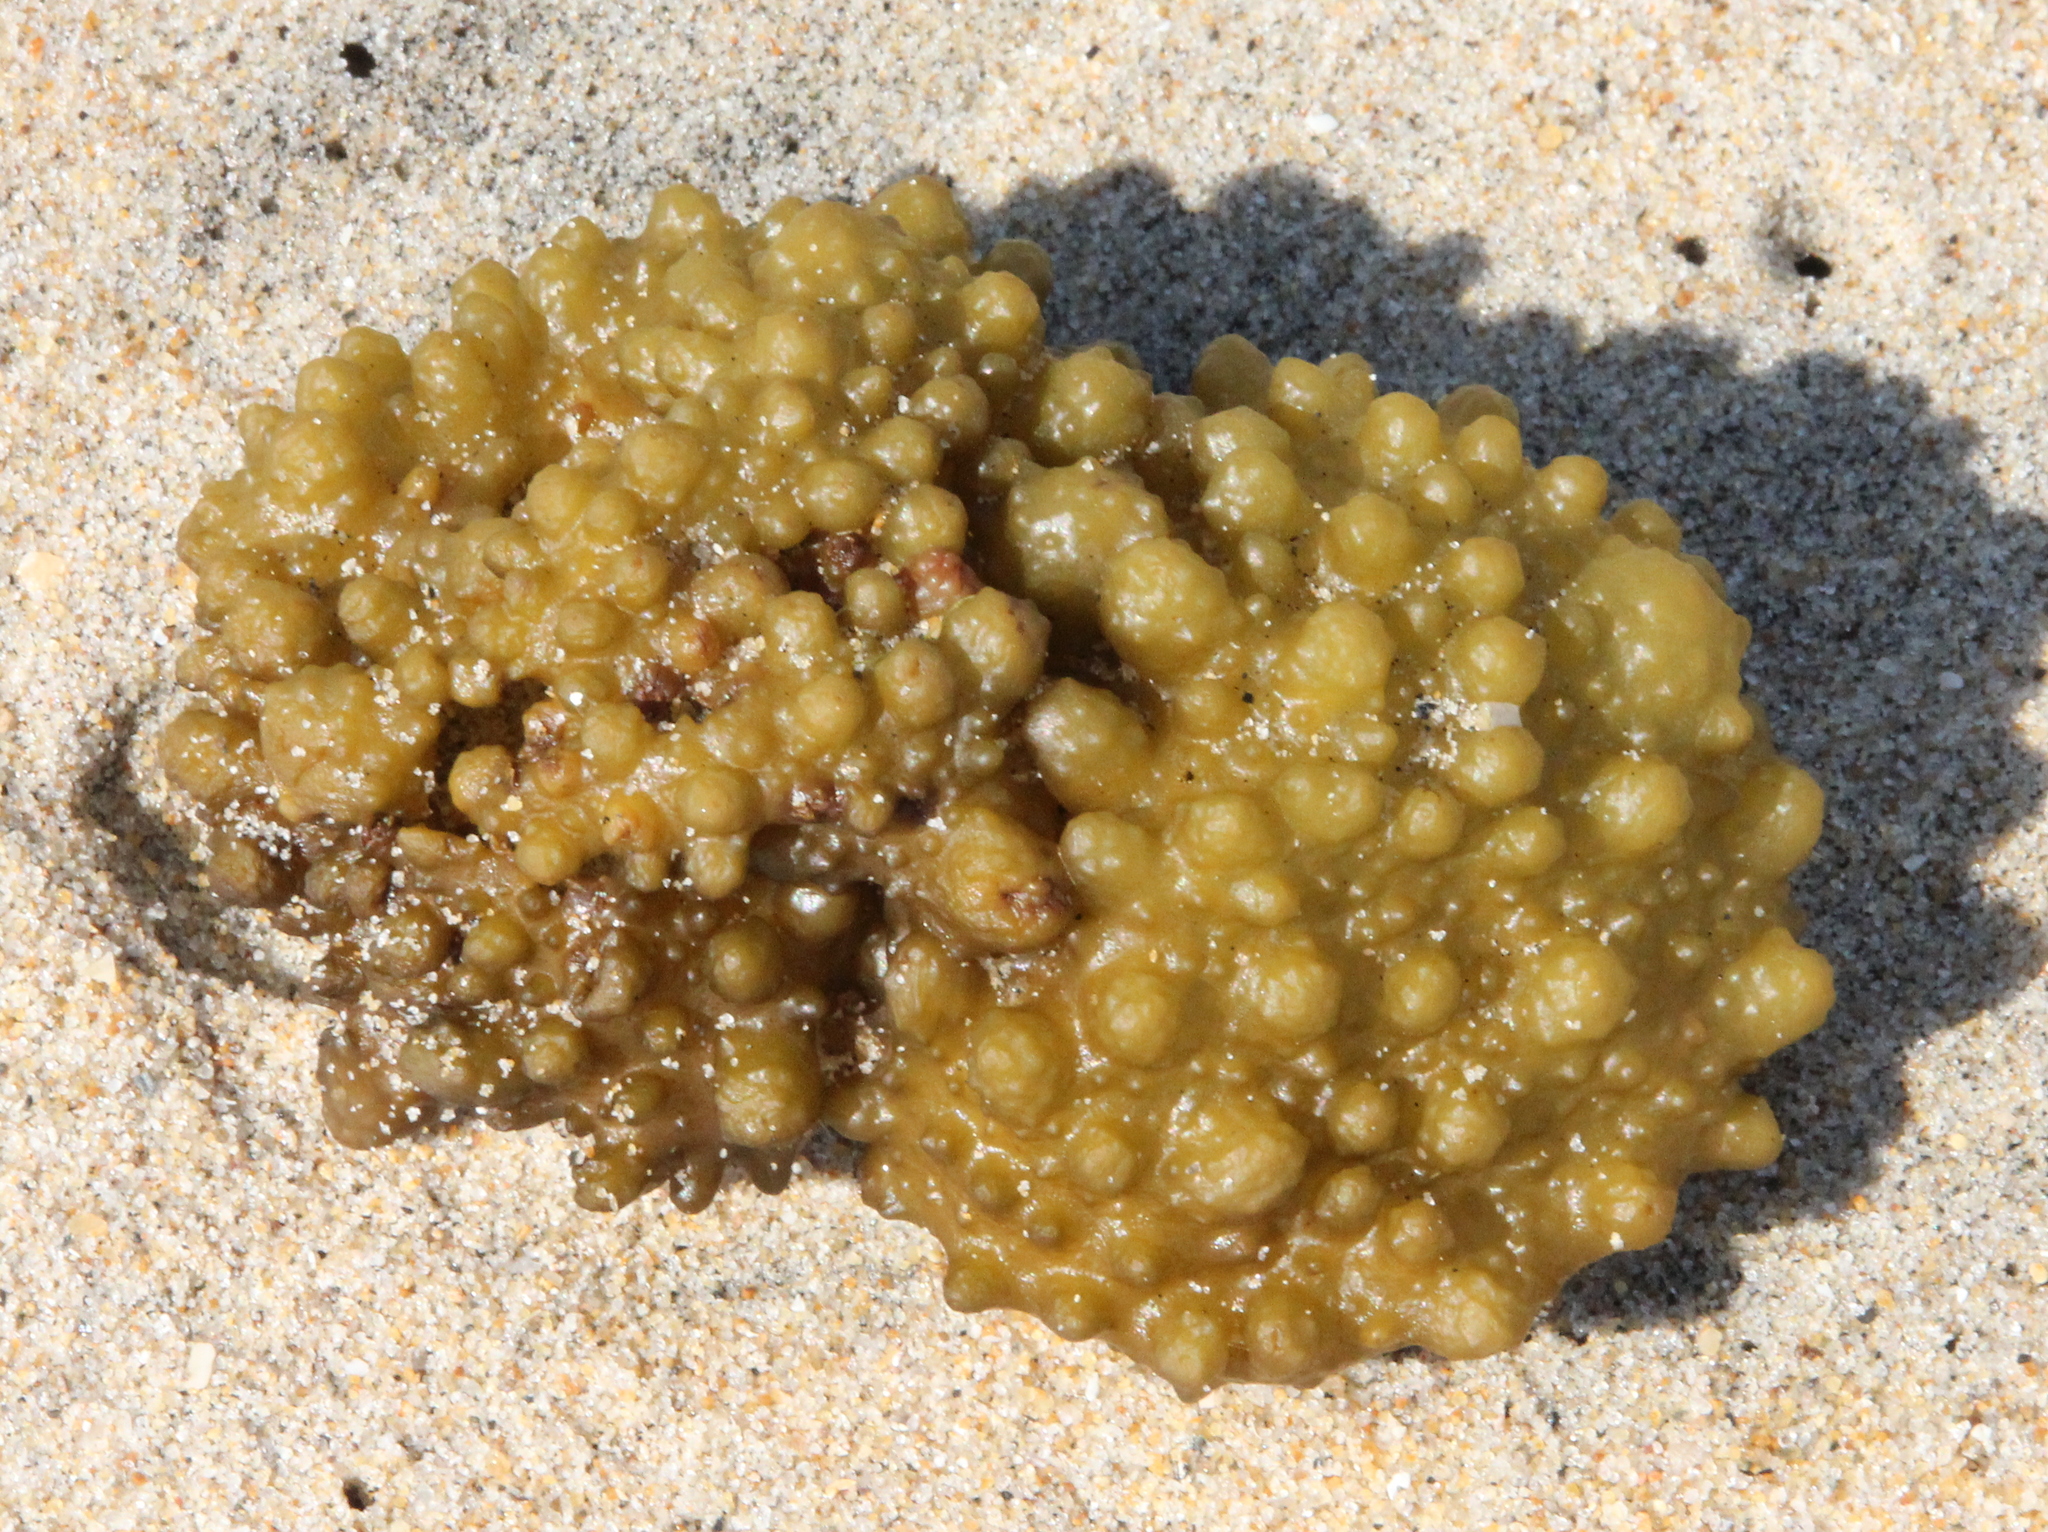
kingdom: Chromista
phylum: Ochrophyta
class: Phaeophyceae
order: Scytosiphonales
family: Scytosiphonaceae
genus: Colpomenia
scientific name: Colpomenia
